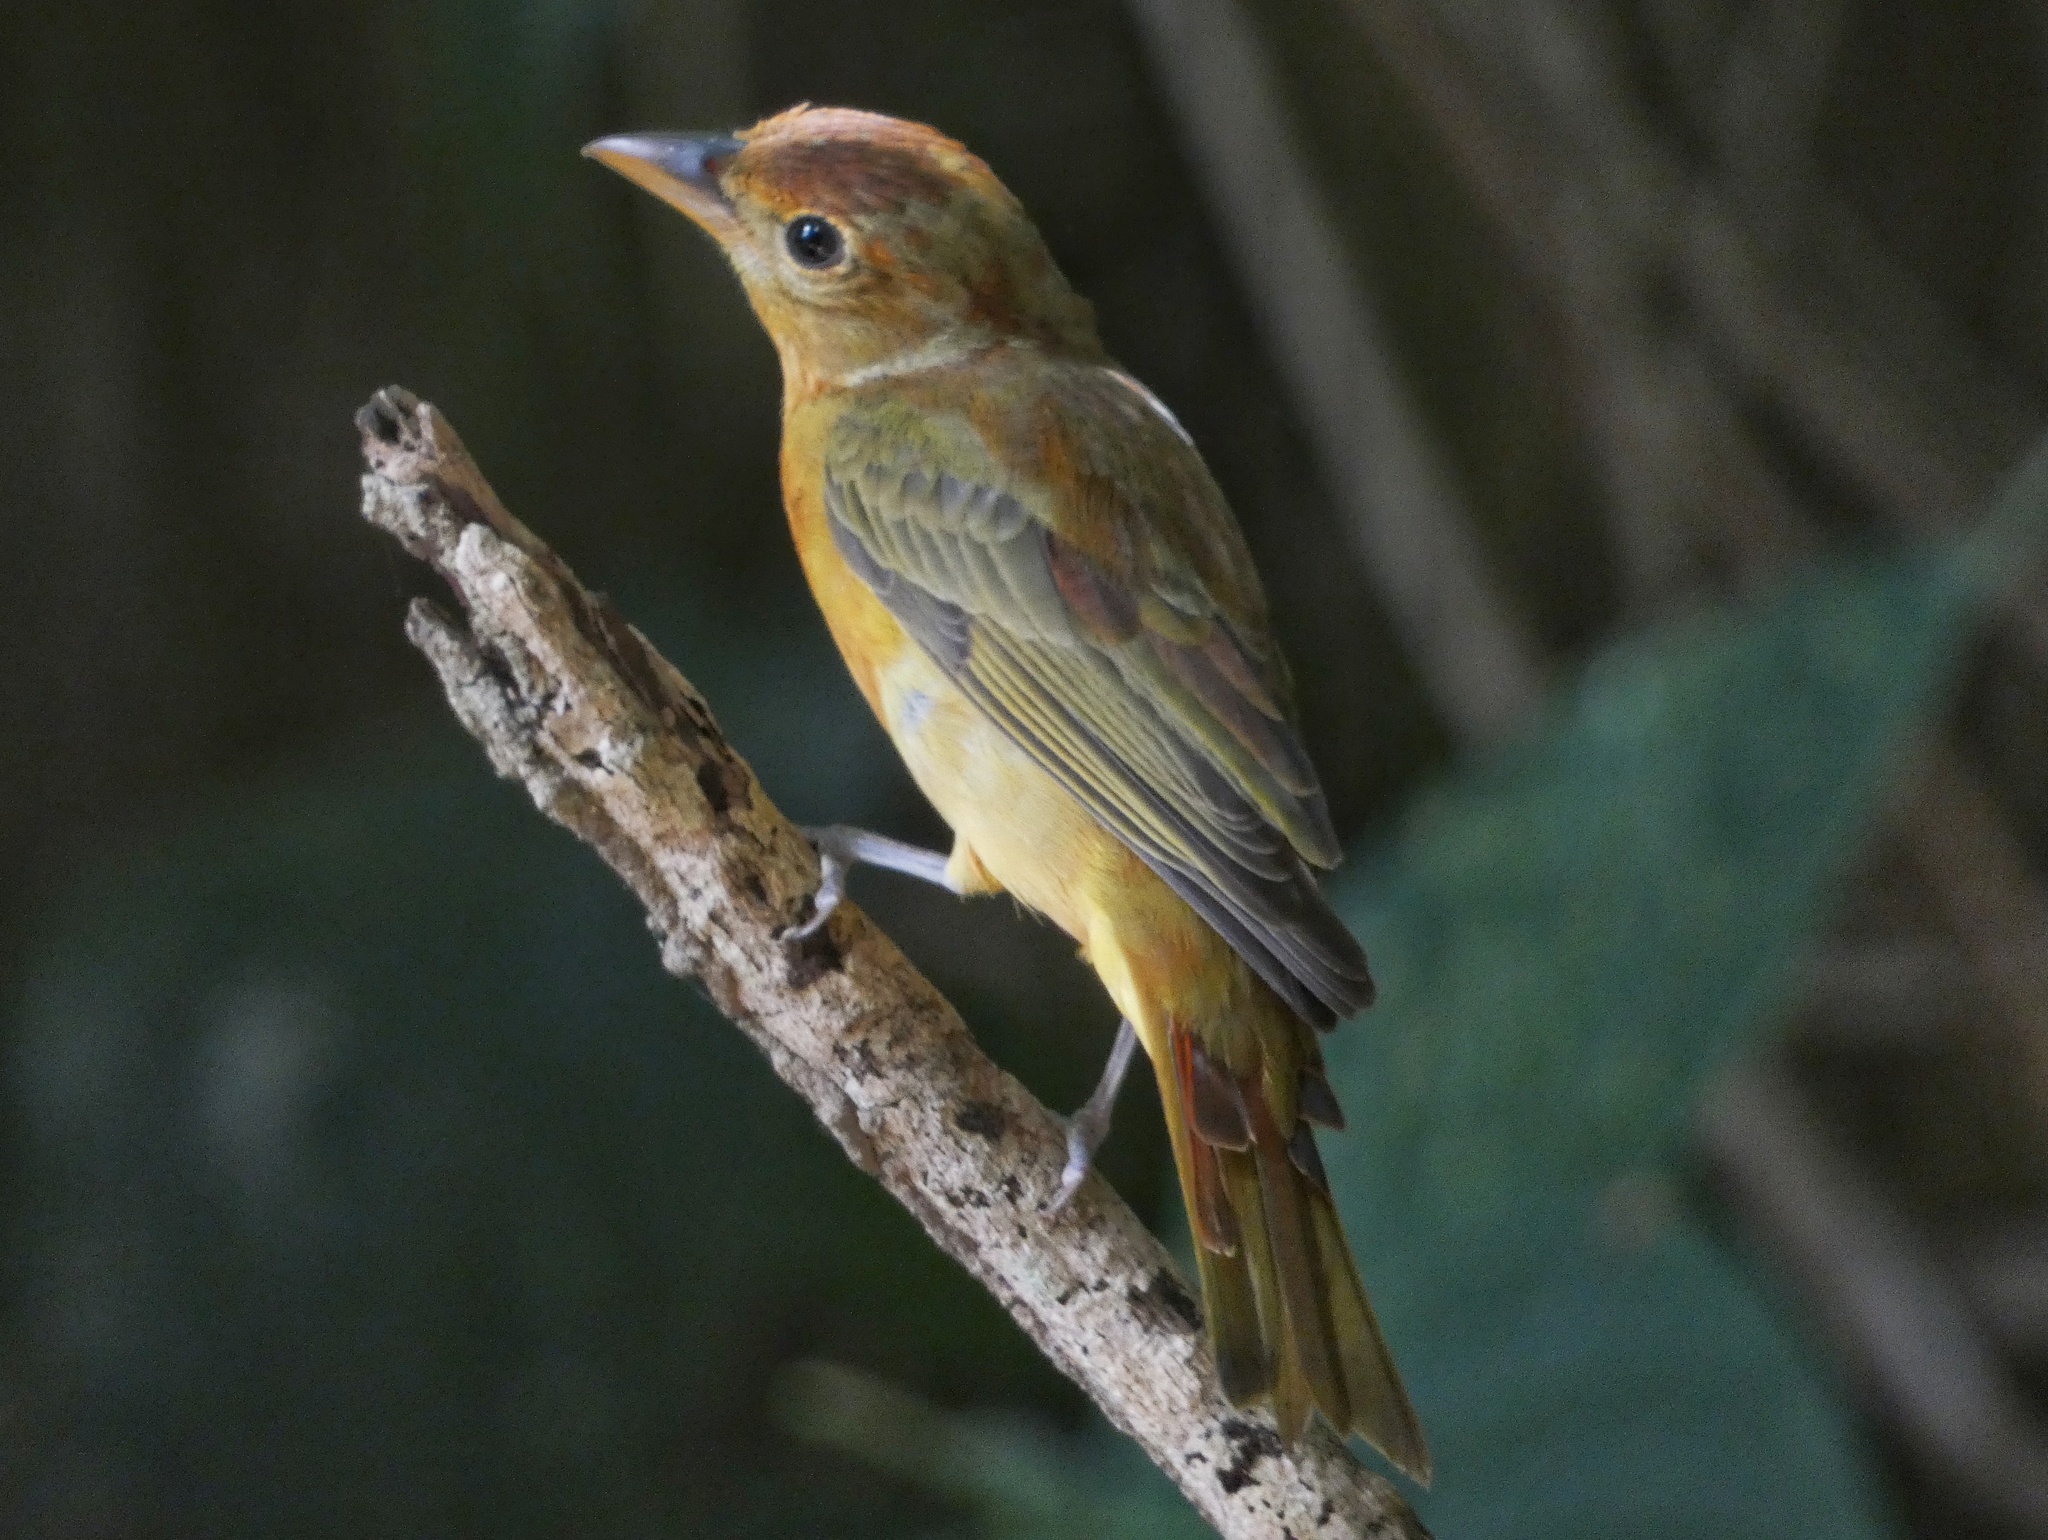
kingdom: Animalia
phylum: Chordata
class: Aves
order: Passeriformes
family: Cardinalidae
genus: Piranga
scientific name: Piranga rubra
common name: Summer tanager
